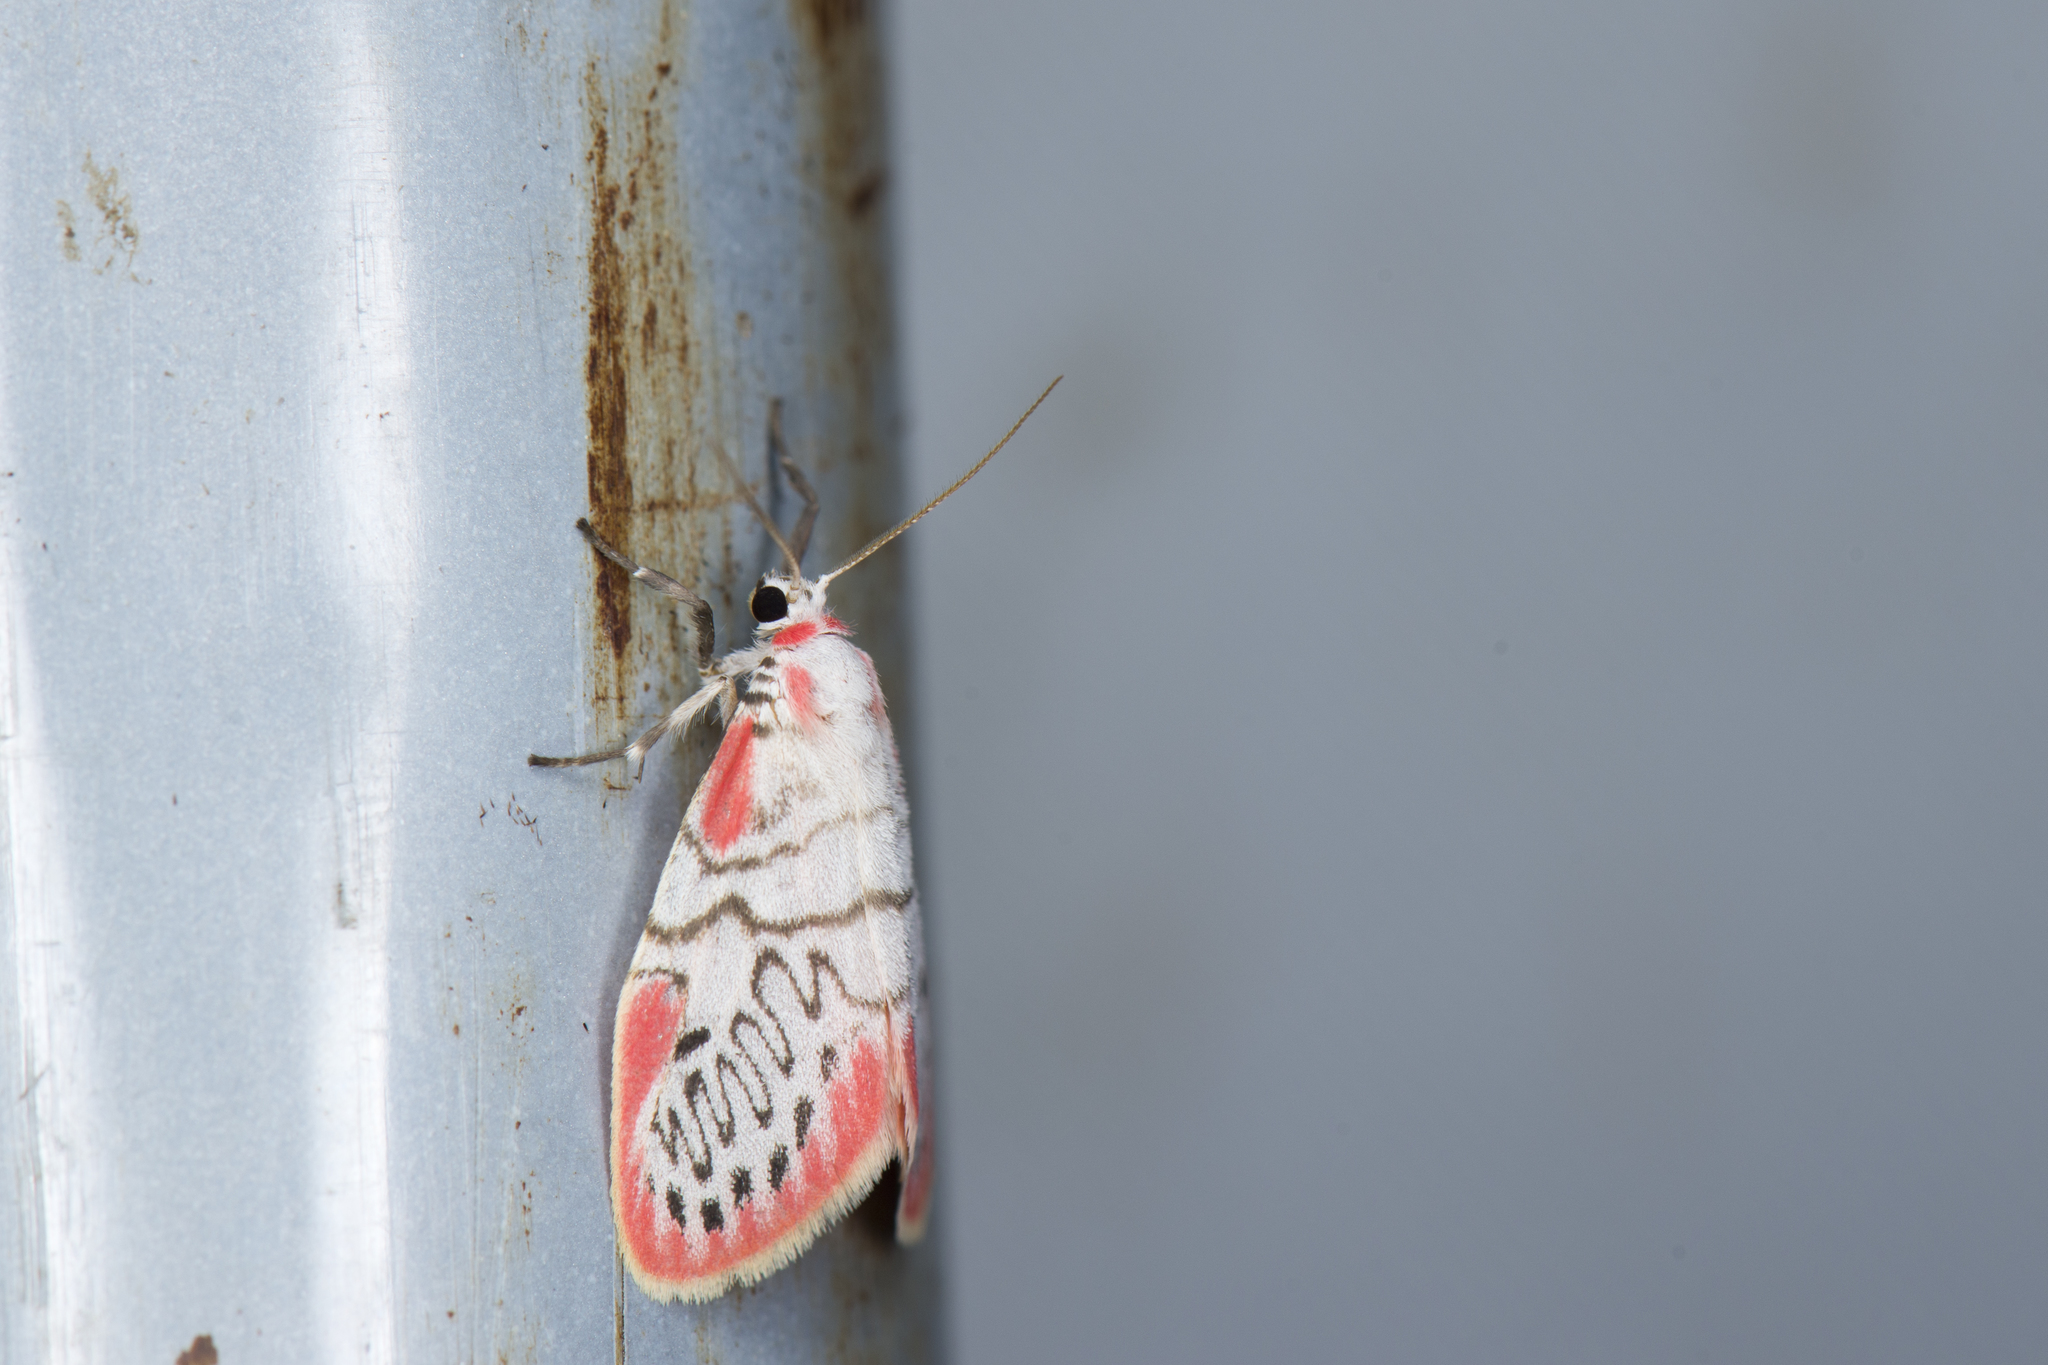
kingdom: Animalia
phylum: Arthropoda
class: Insecta
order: Lepidoptera
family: Erebidae
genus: Miltochrista
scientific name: Miltochrista ziczac
